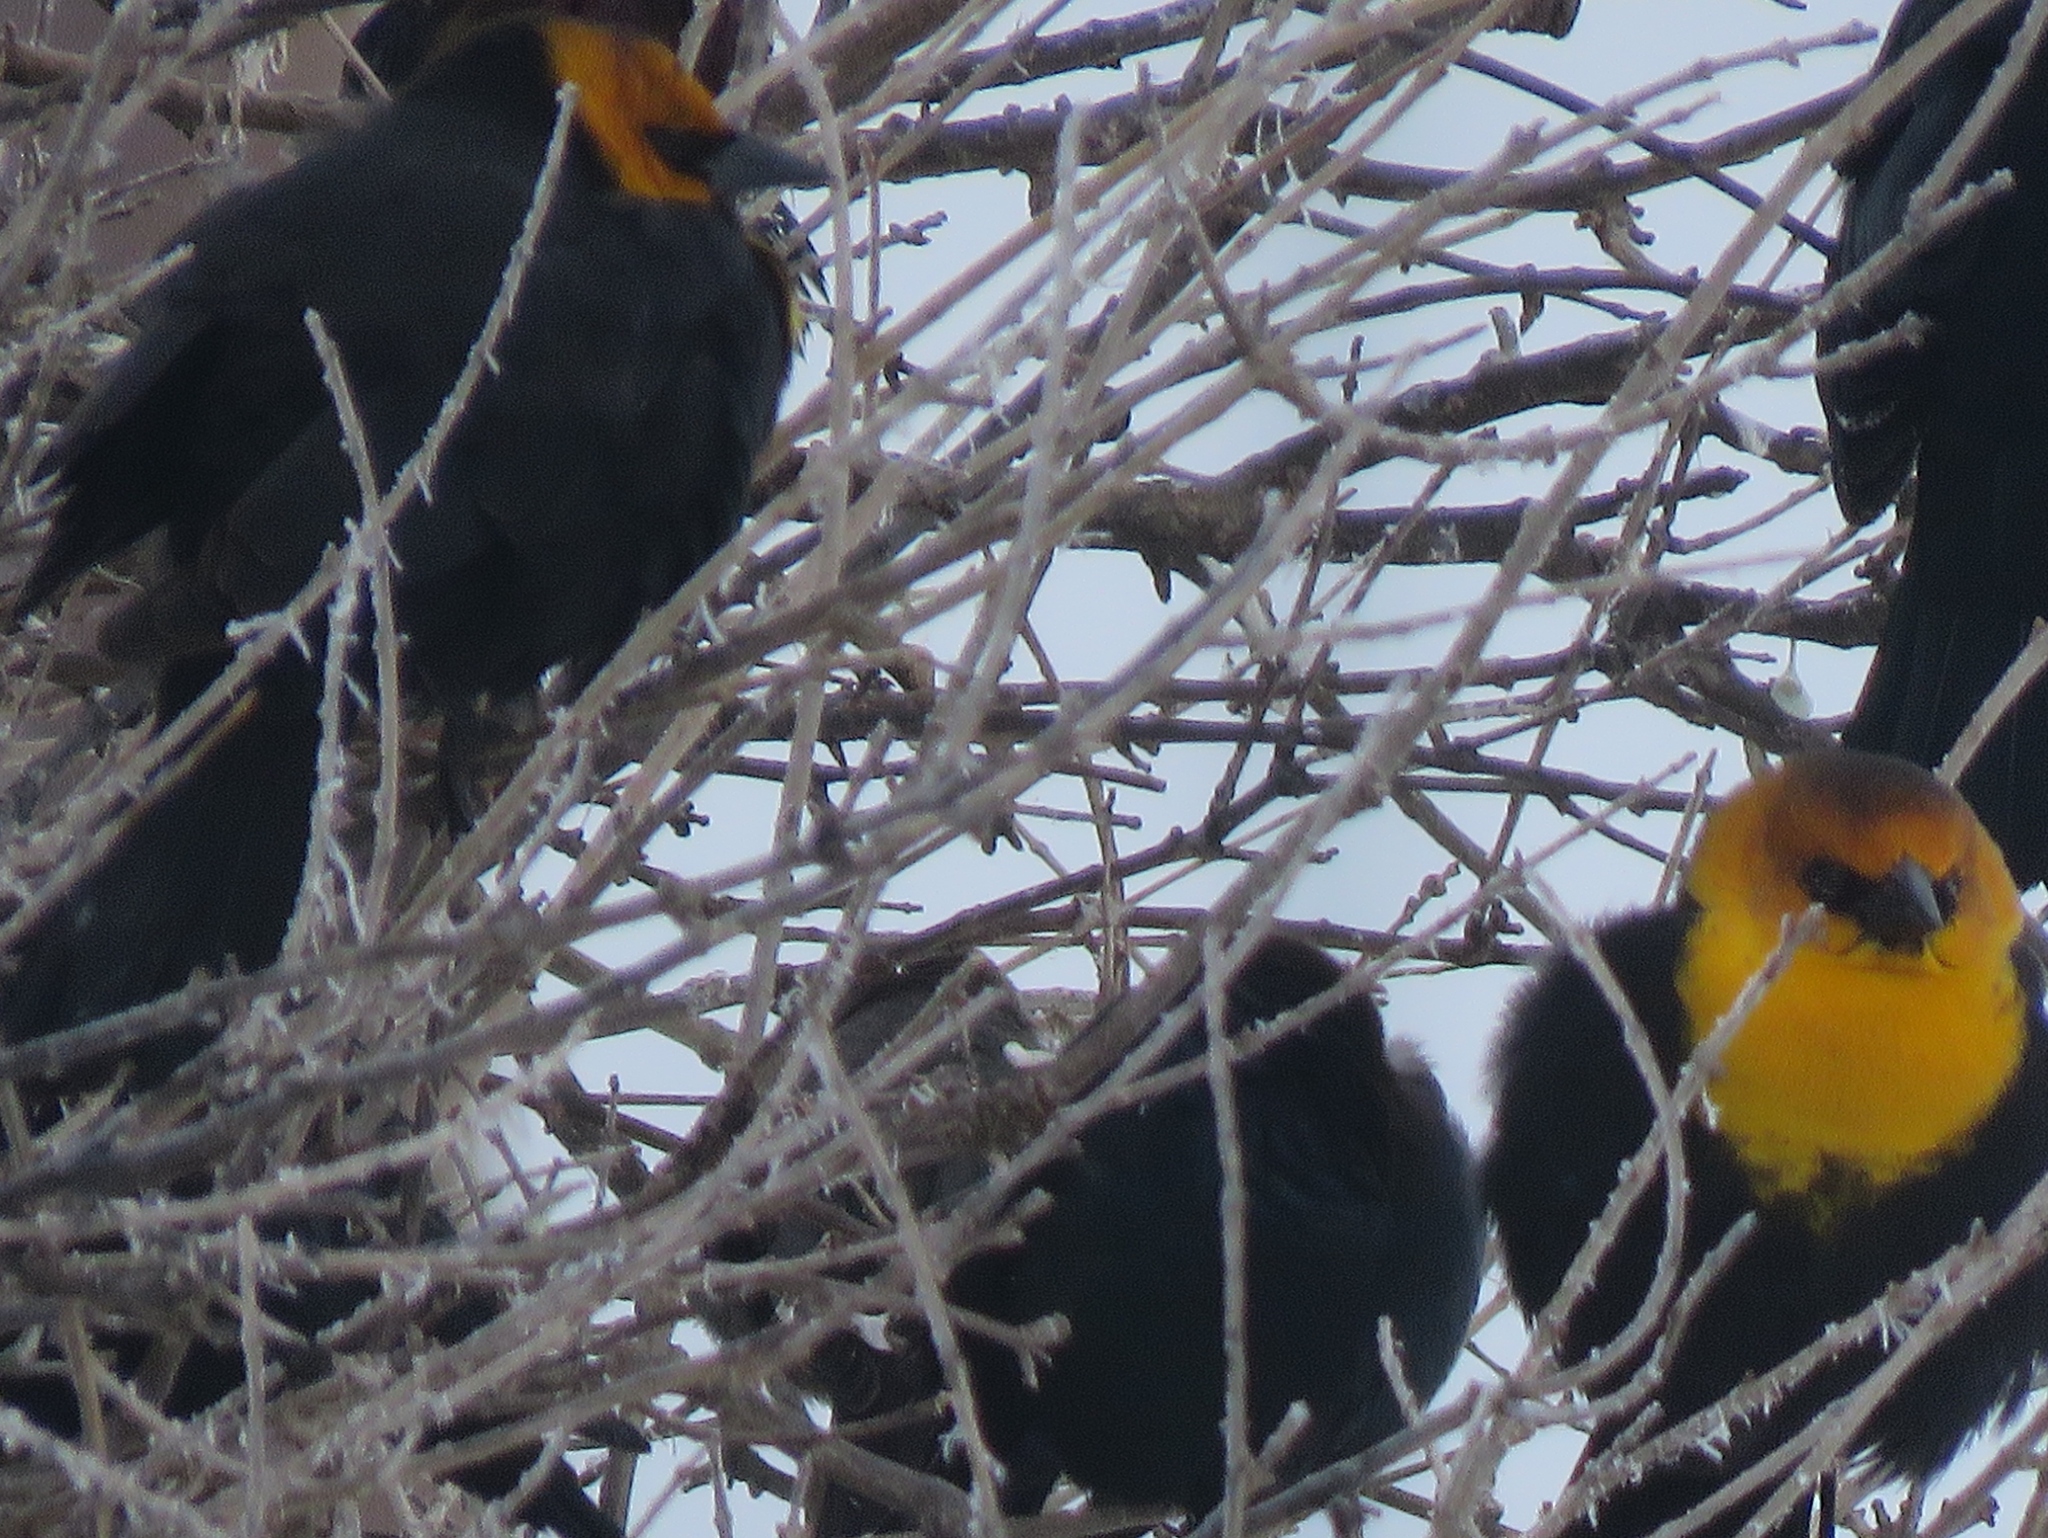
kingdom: Animalia
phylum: Chordata
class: Aves
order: Passeriformes
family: Icteridae
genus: Xanthocephalus
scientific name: Xanthocephalus xanthocephalus
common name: Yellow-headed blackbird
